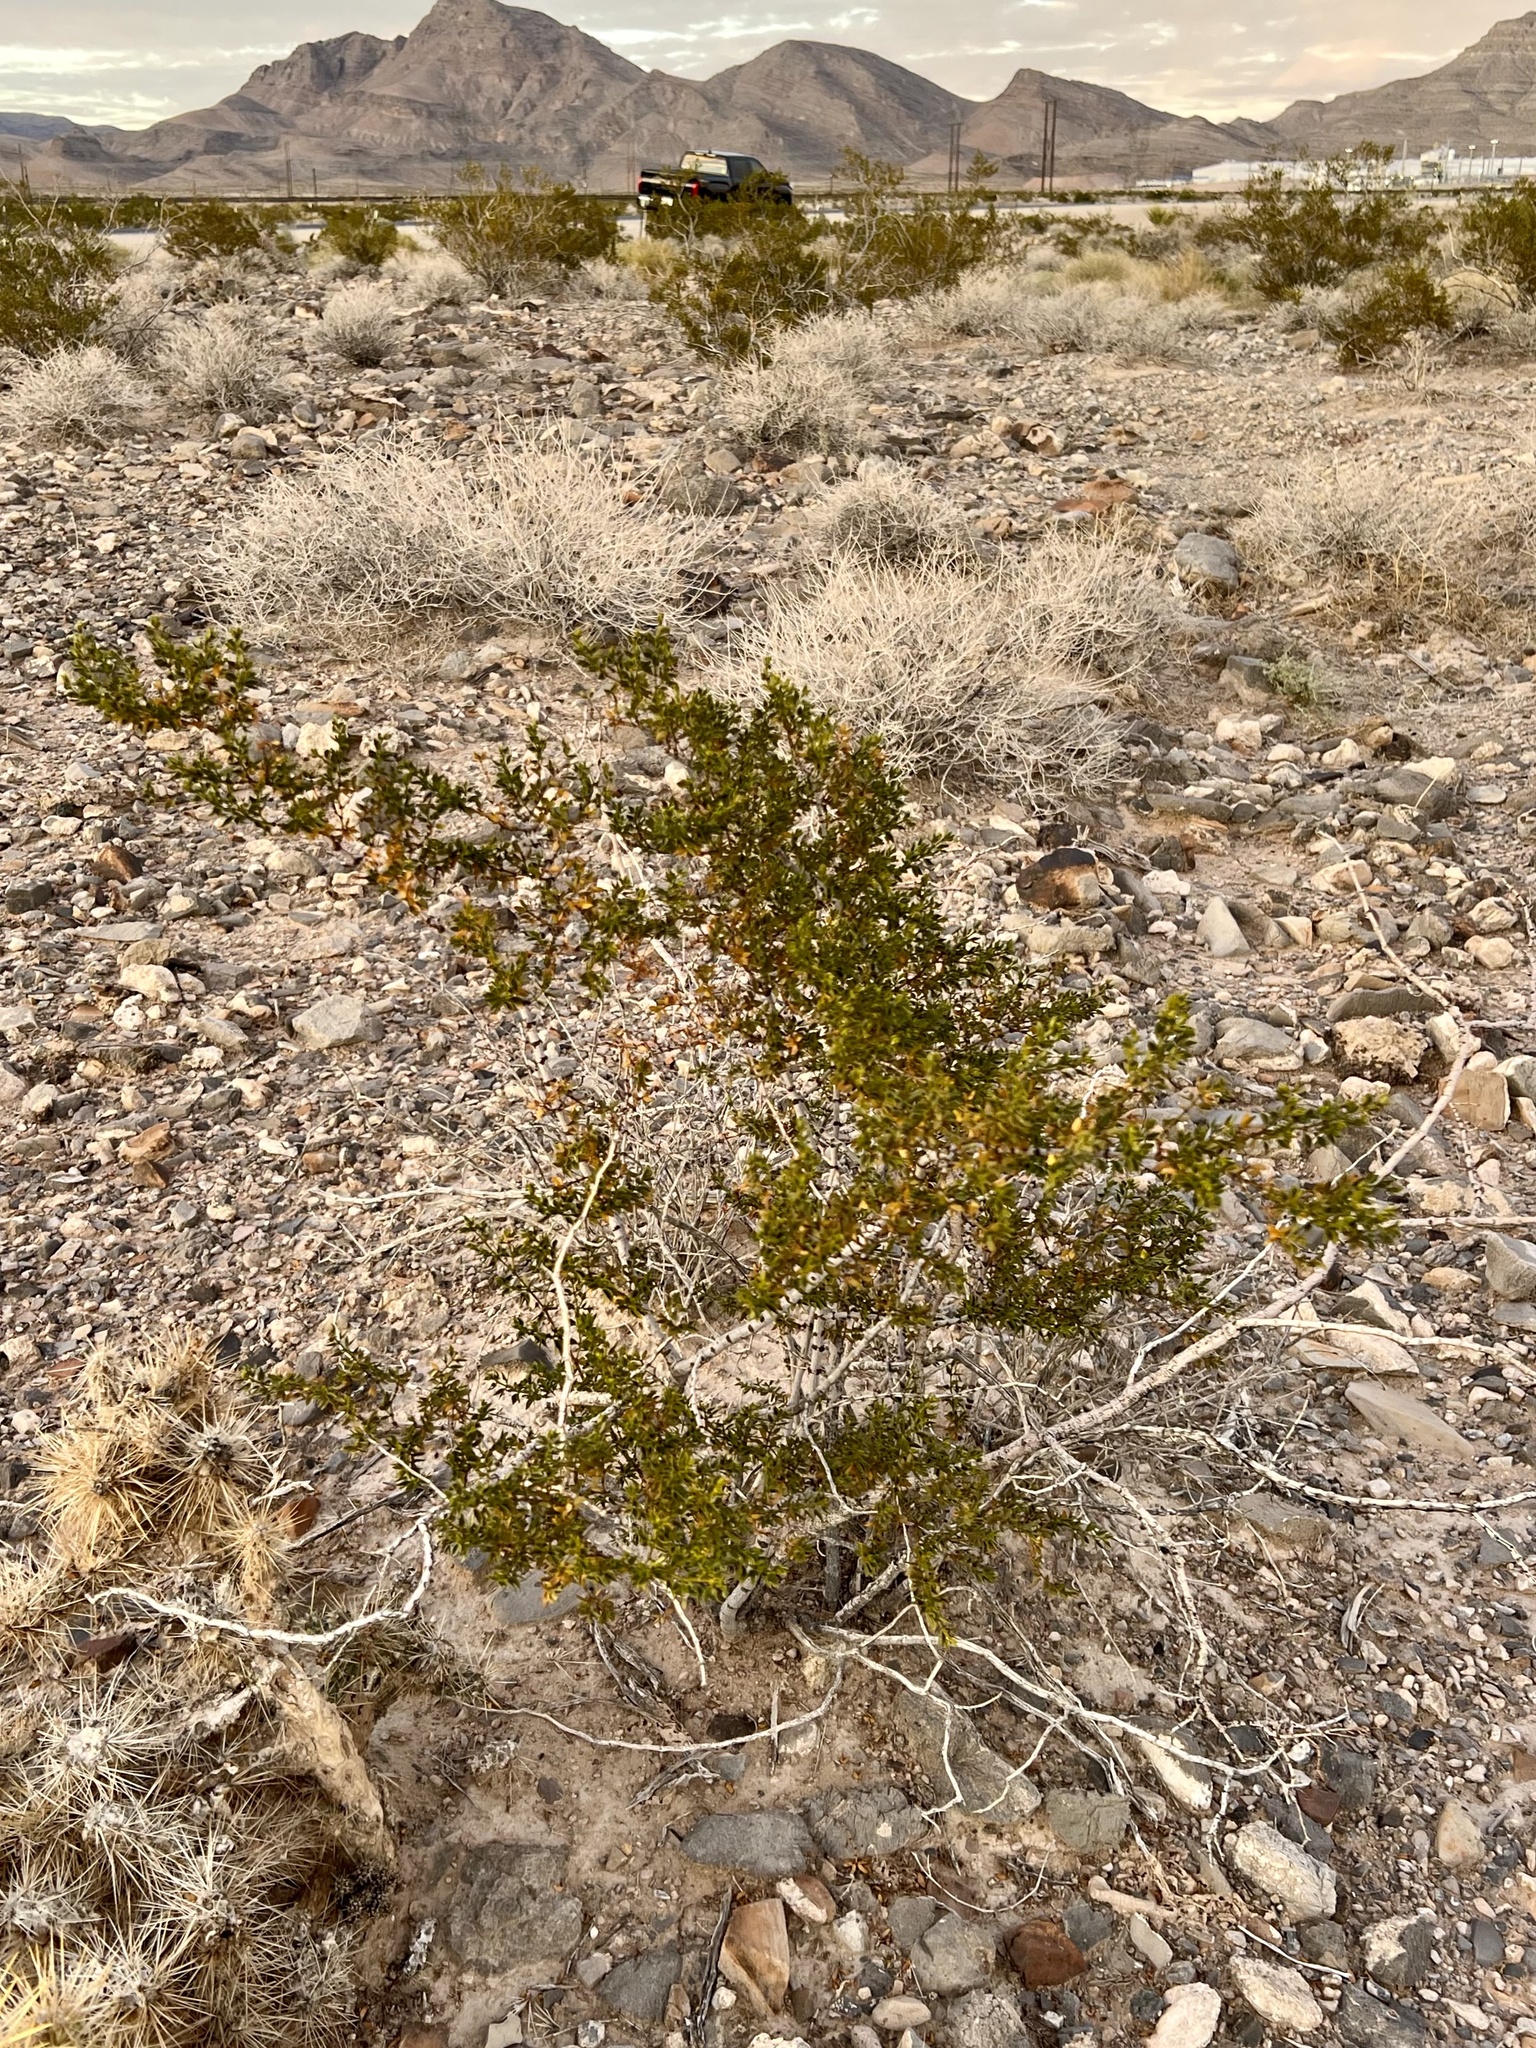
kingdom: Plantae
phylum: Tracheophyta
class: Magnoliopsida
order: Zygophyllales
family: Zygophyllaceae
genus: Larrea
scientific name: Larrea tridentata
